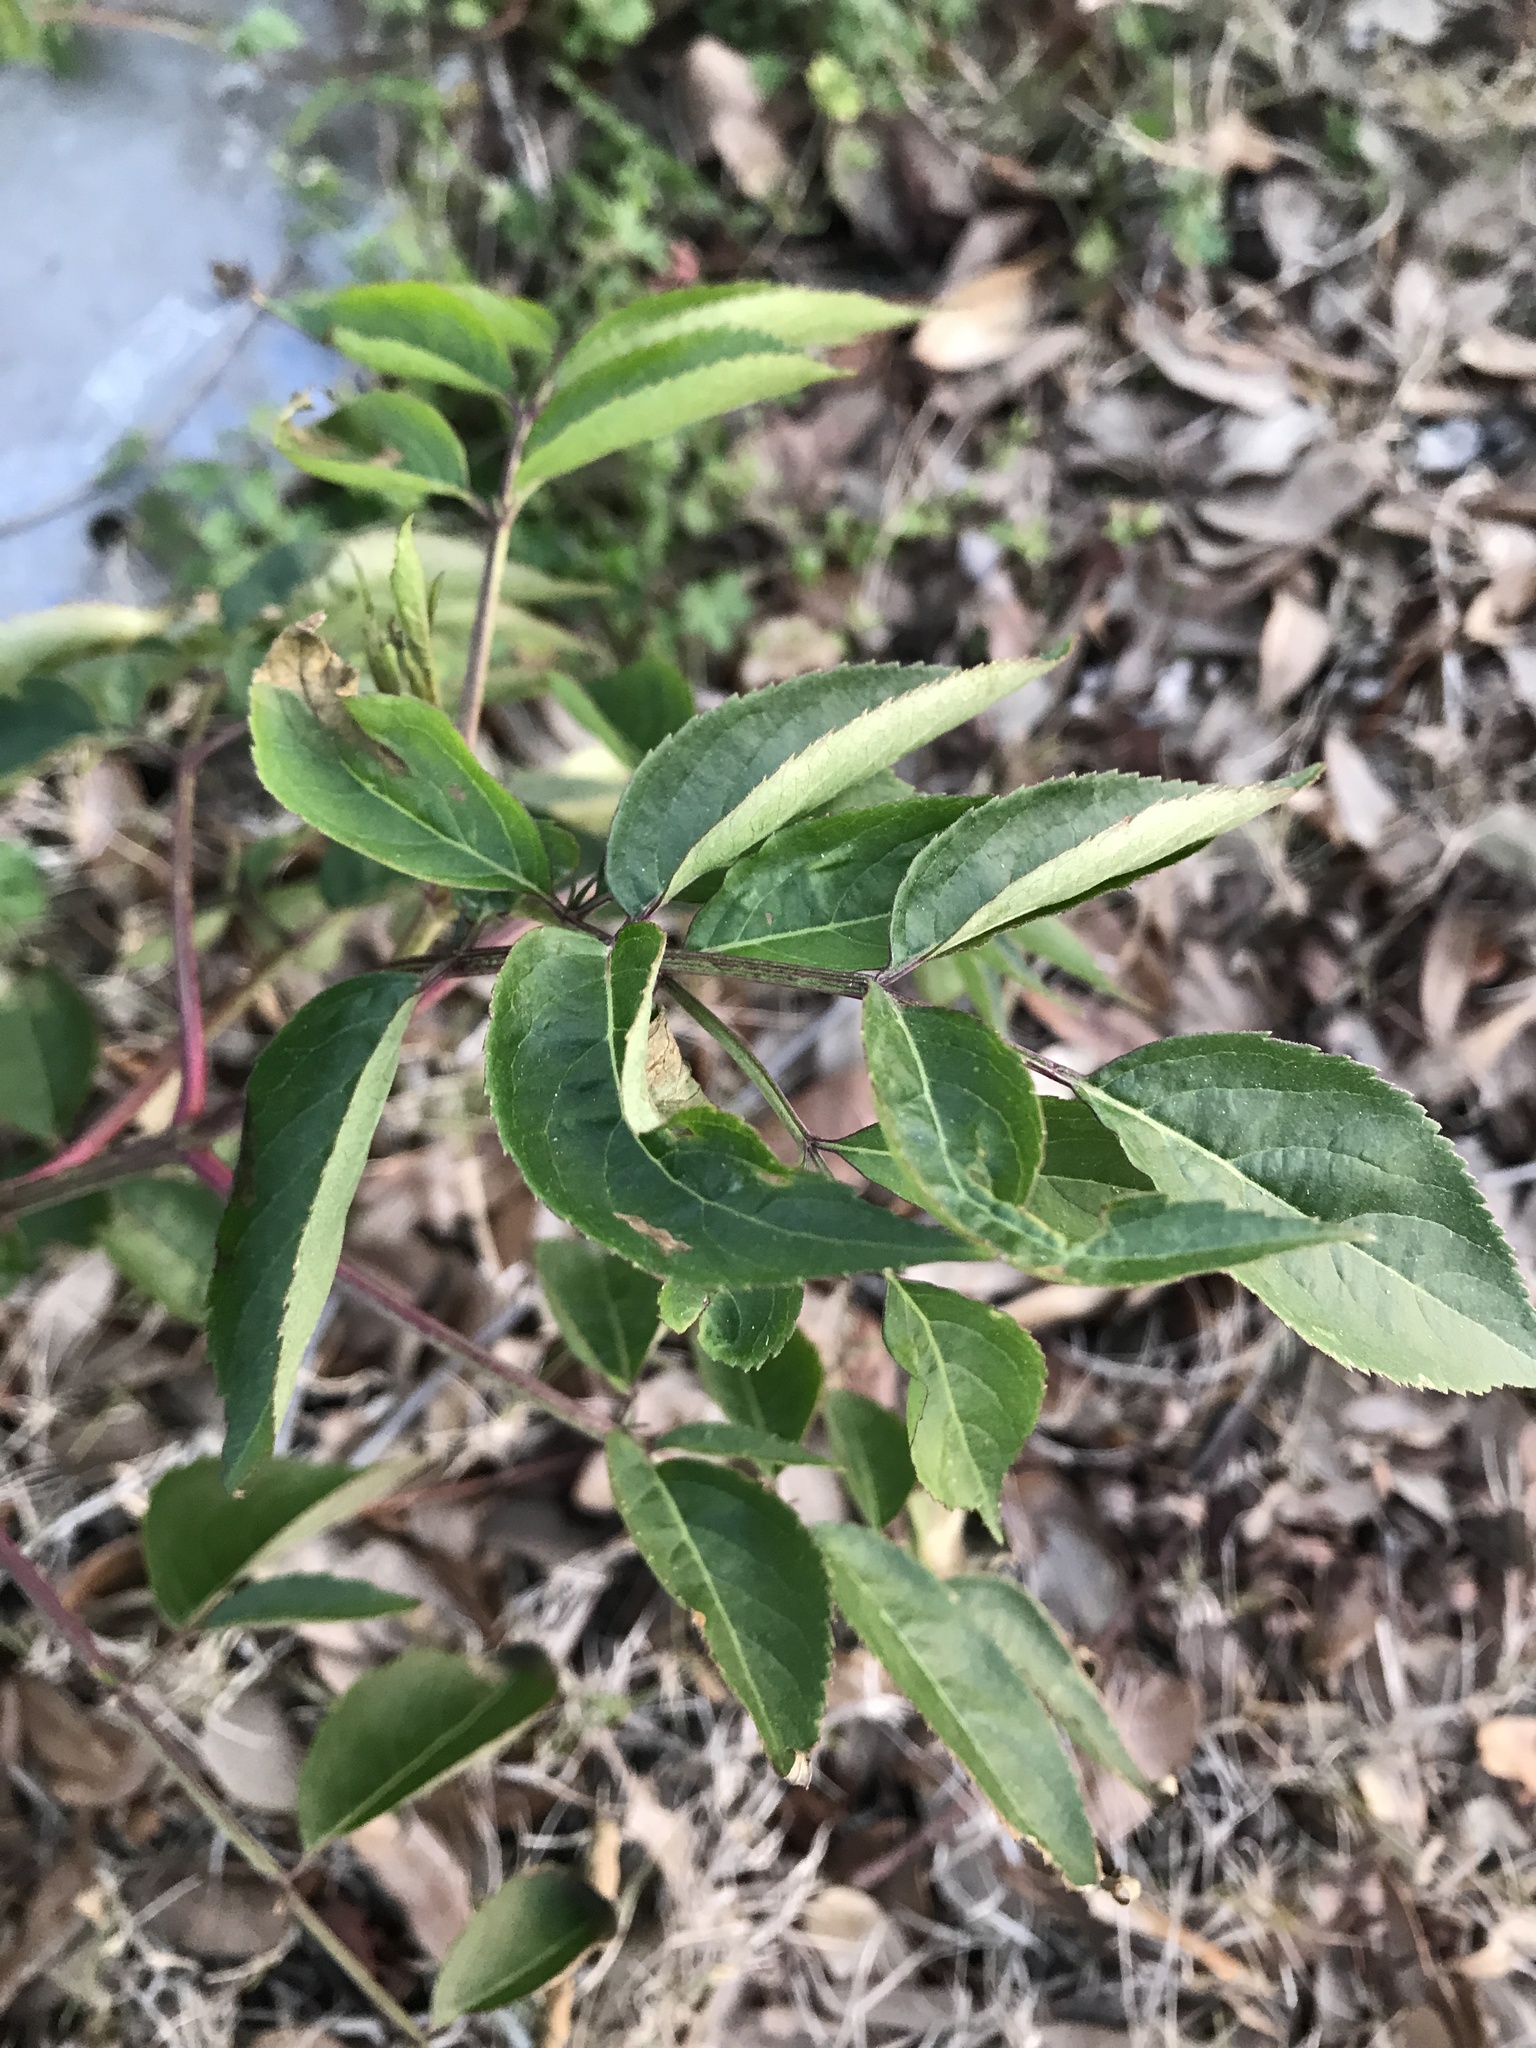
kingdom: Plantae
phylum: Tracheophyta
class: Magnoliopsida
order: Dipsacales
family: Viburnaceae
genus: Sambucus
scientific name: Sambucus canadensis
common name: American elder
